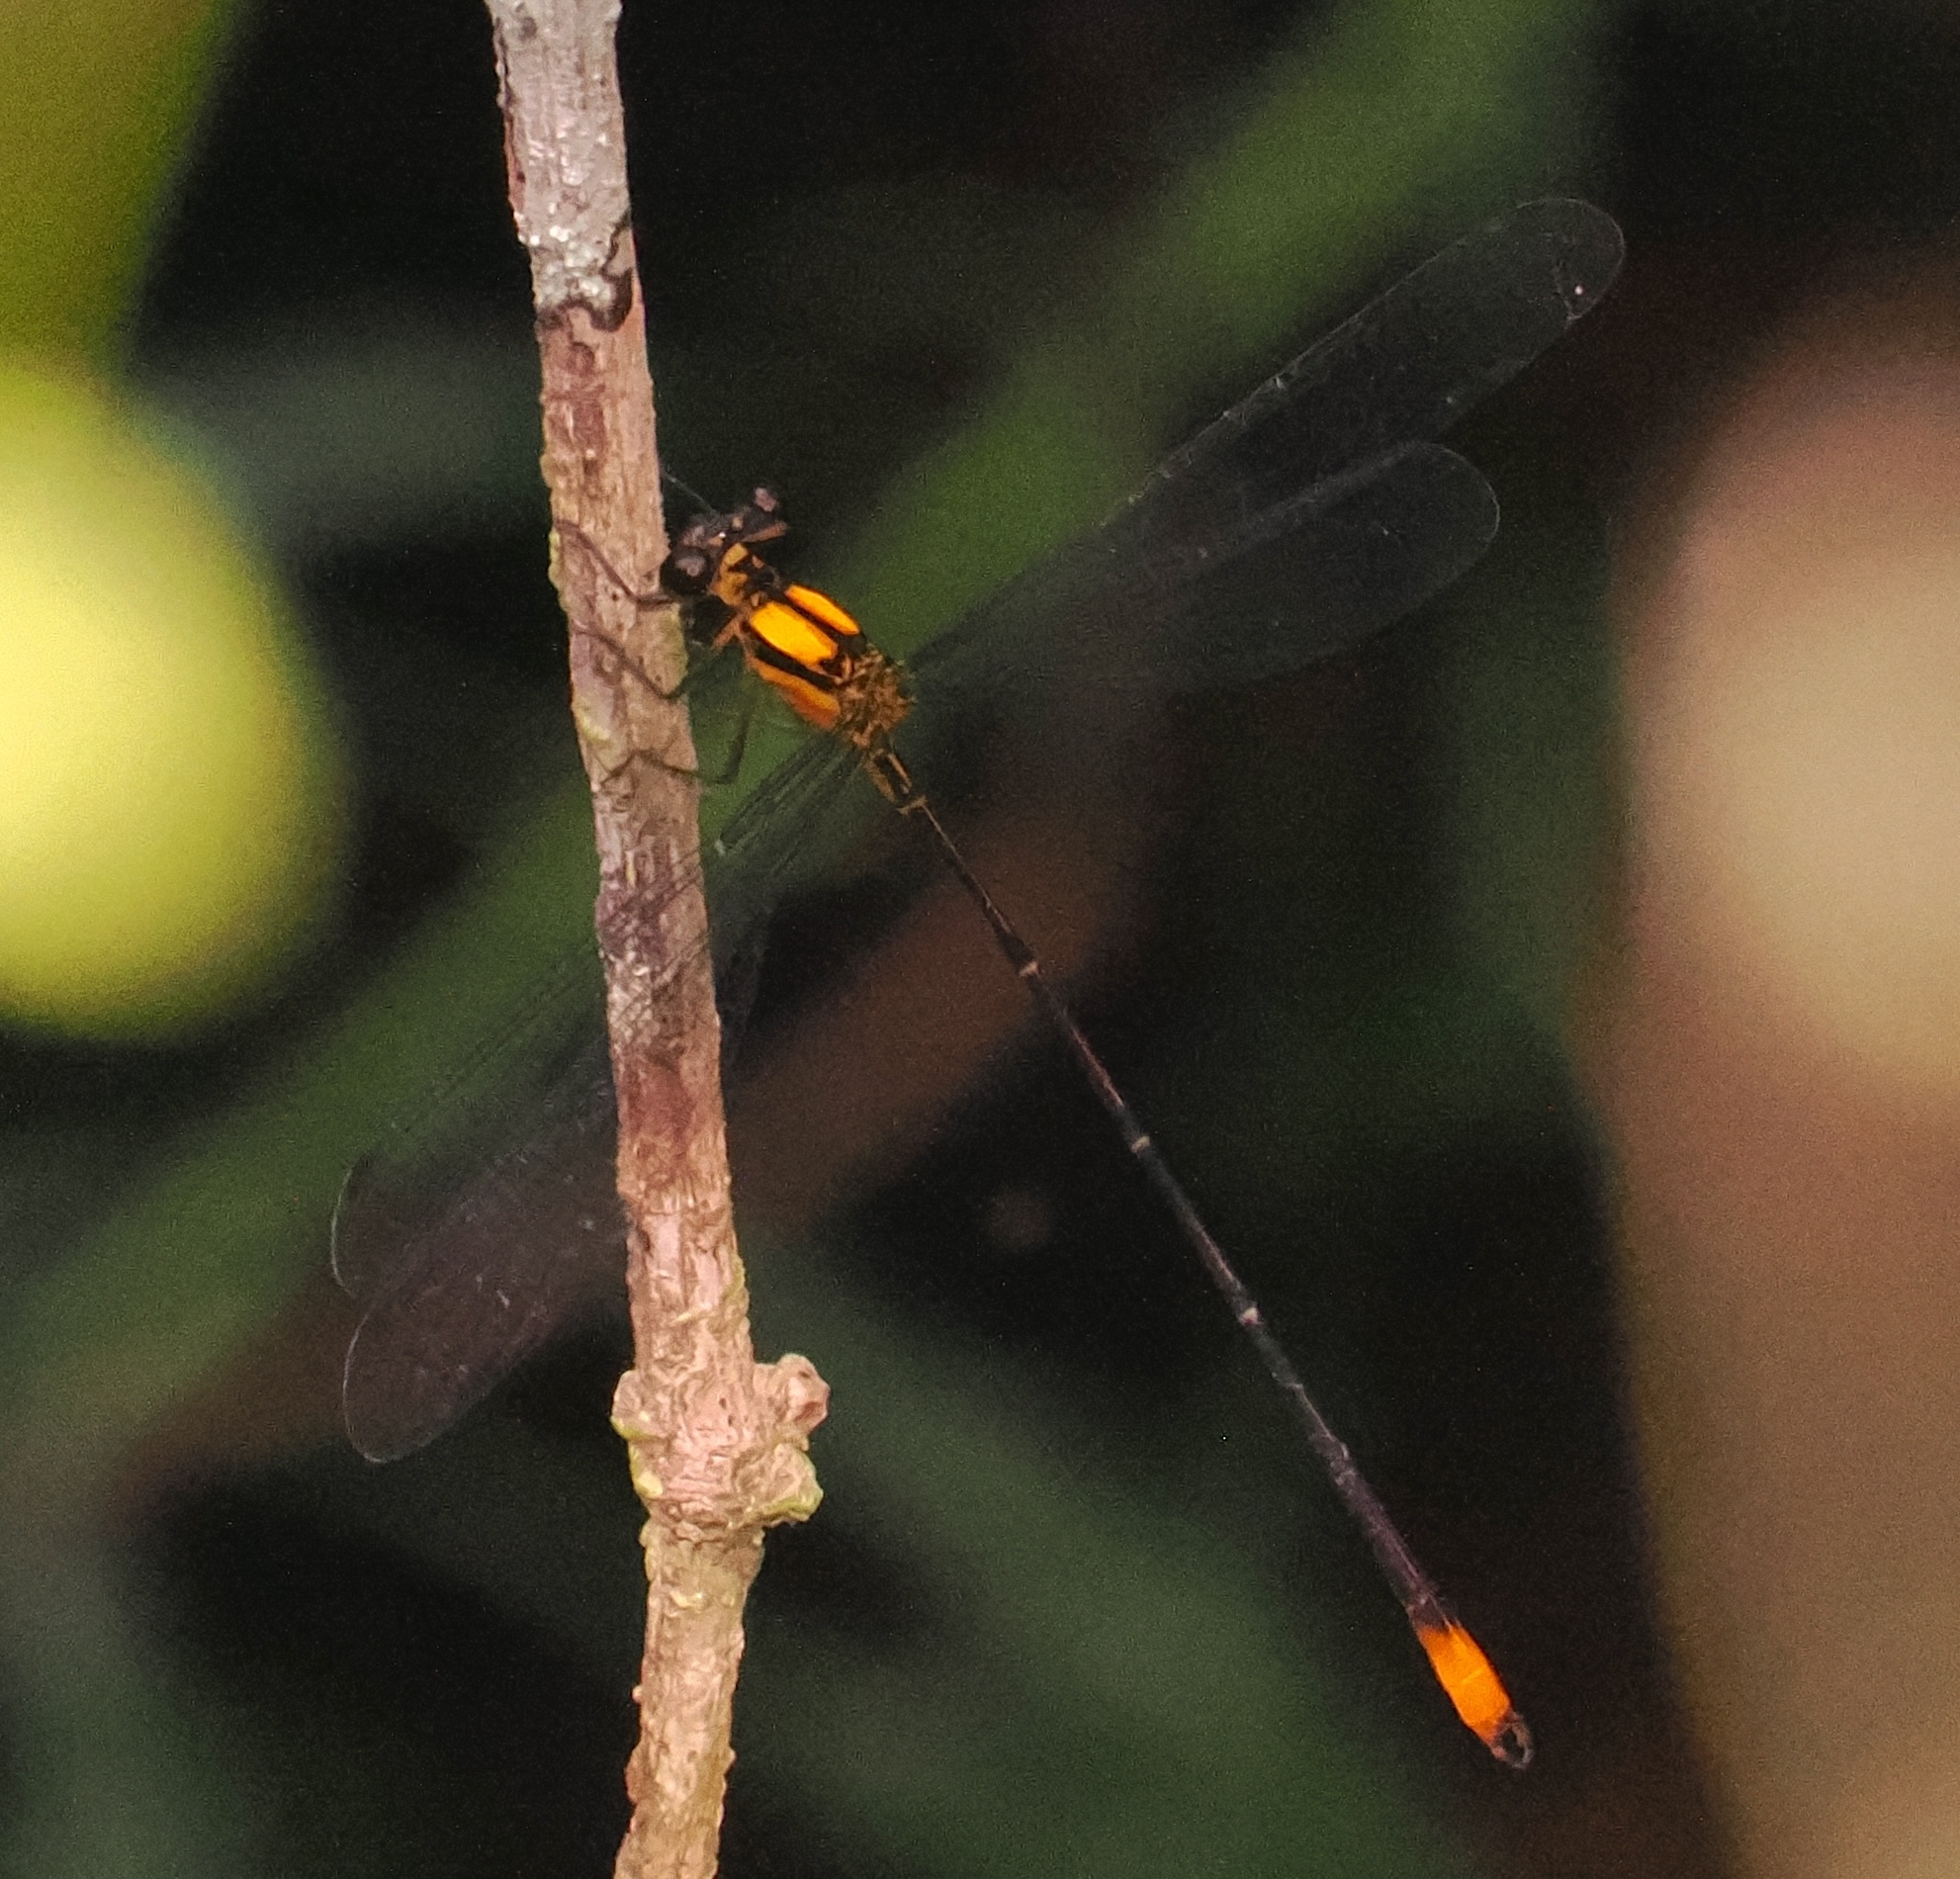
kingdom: Animalia
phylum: Arthropoda
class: Insecta
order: Odonata
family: Heteragrionidae
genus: Heteragrion
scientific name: Heteragrion mantiqueirae
